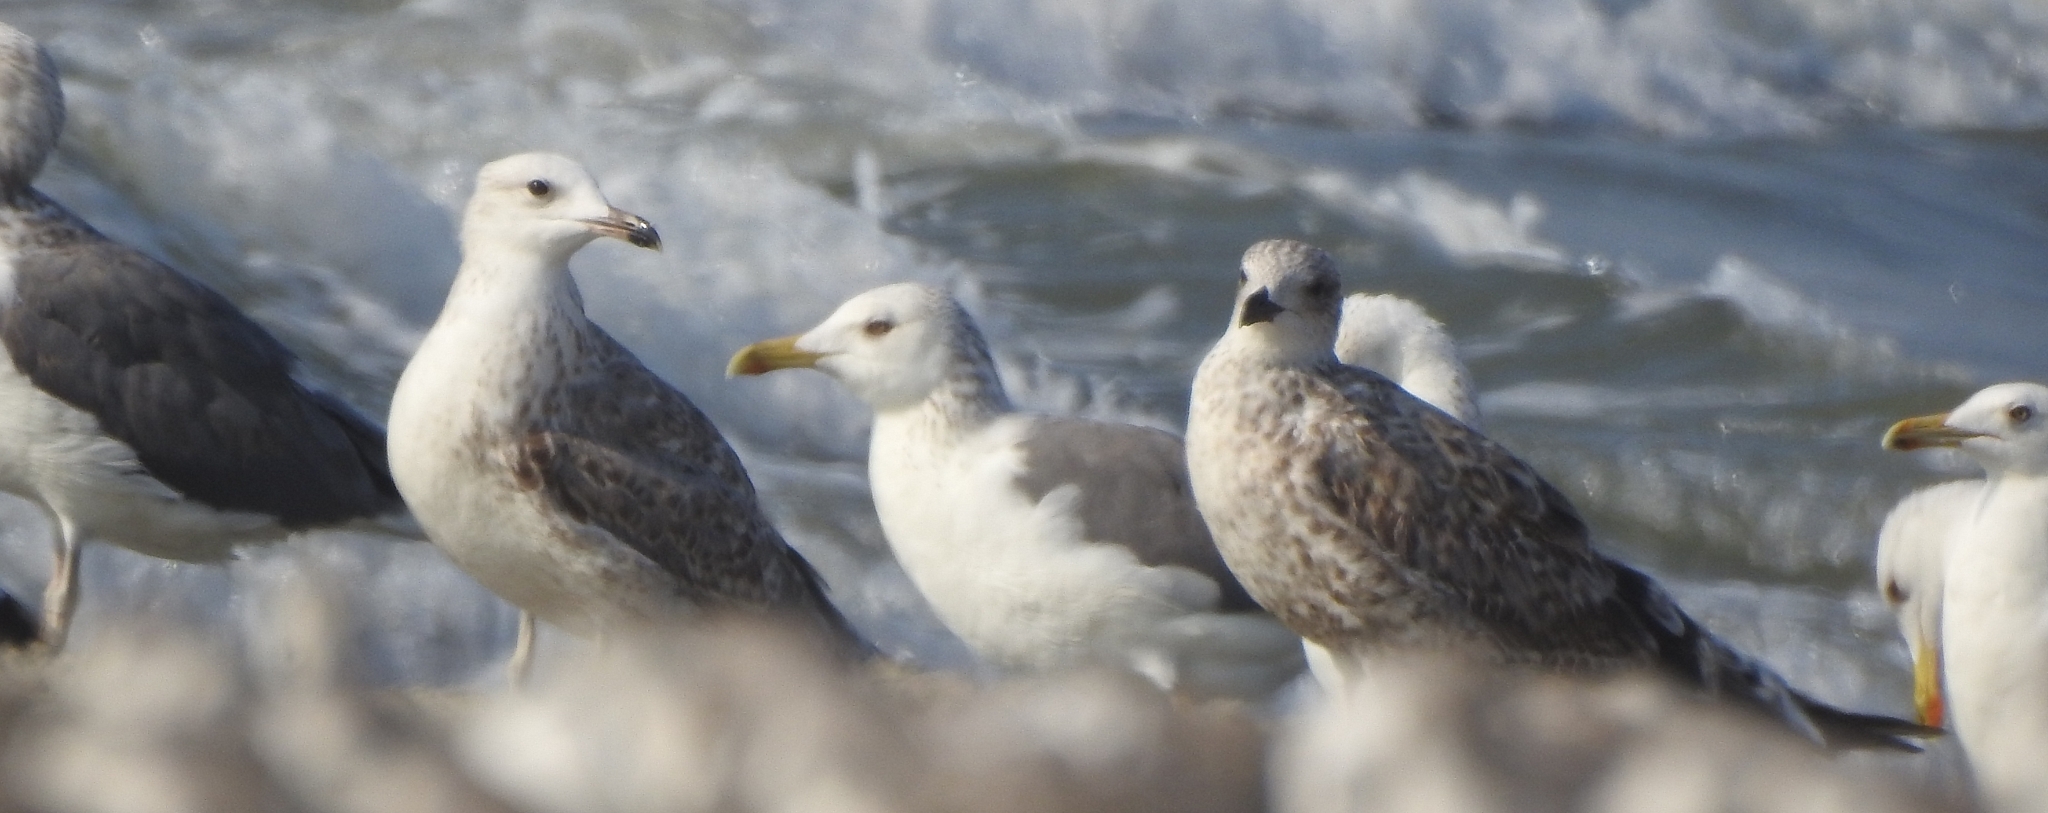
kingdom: Animalia
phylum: Chordata
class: Aves
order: Charadriiformes
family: Laridae
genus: Larus
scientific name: Larus fuscus
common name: Lesser black-backed gull
